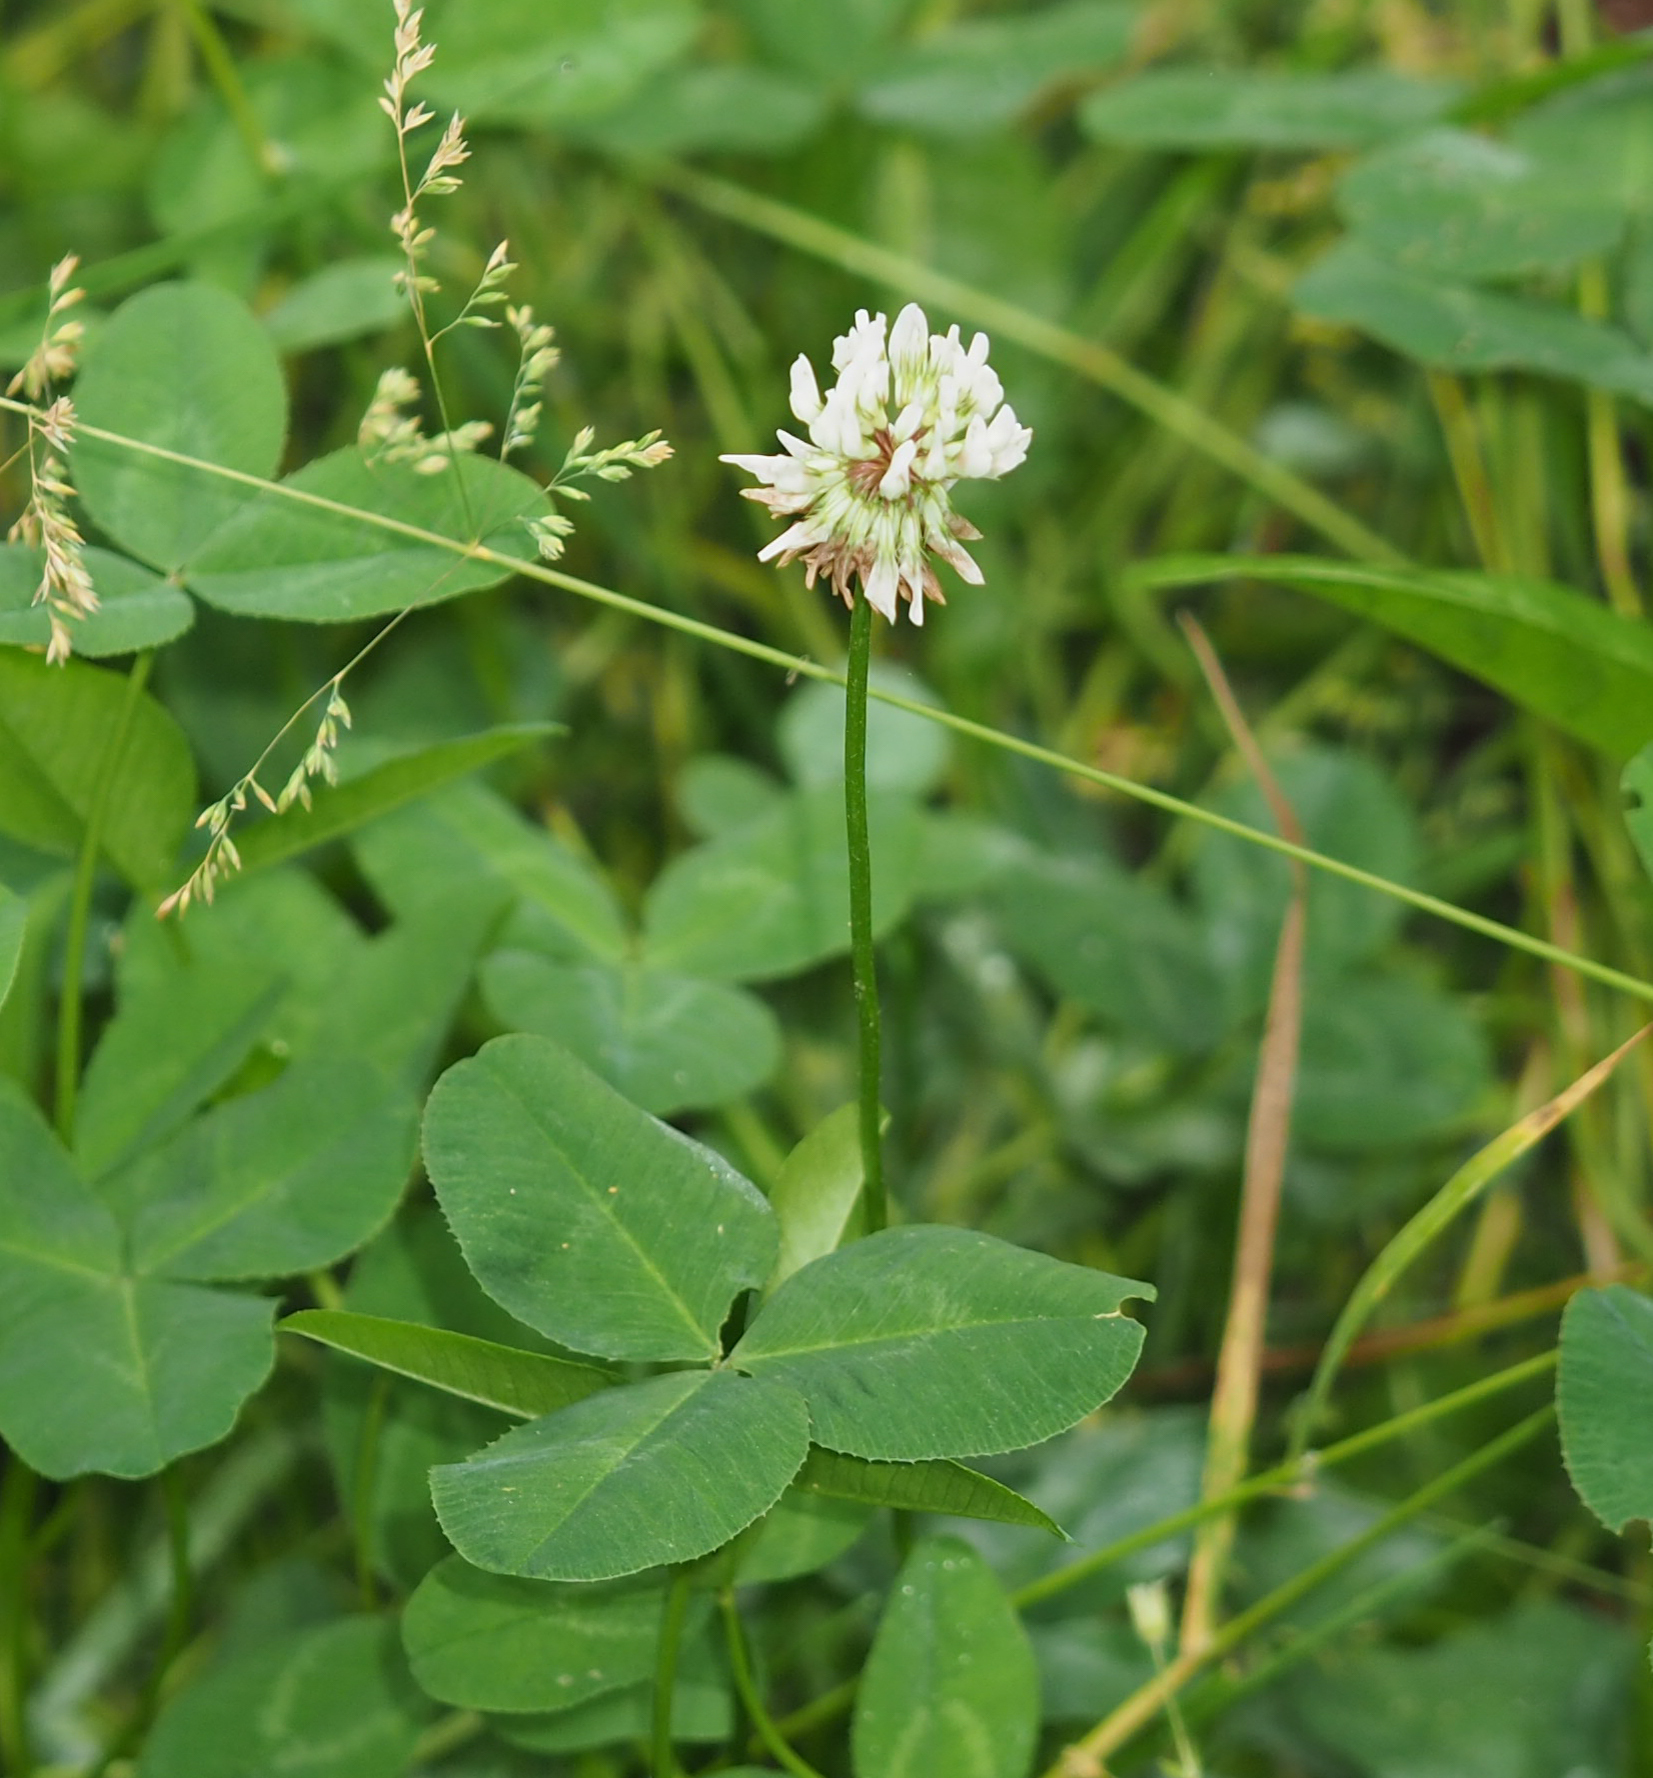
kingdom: Plantae
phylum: Tracheophyta
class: Magnoliopsida
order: Fabales
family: Fabaceae
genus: Trifolium
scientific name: Trifolium repens
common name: White clover
